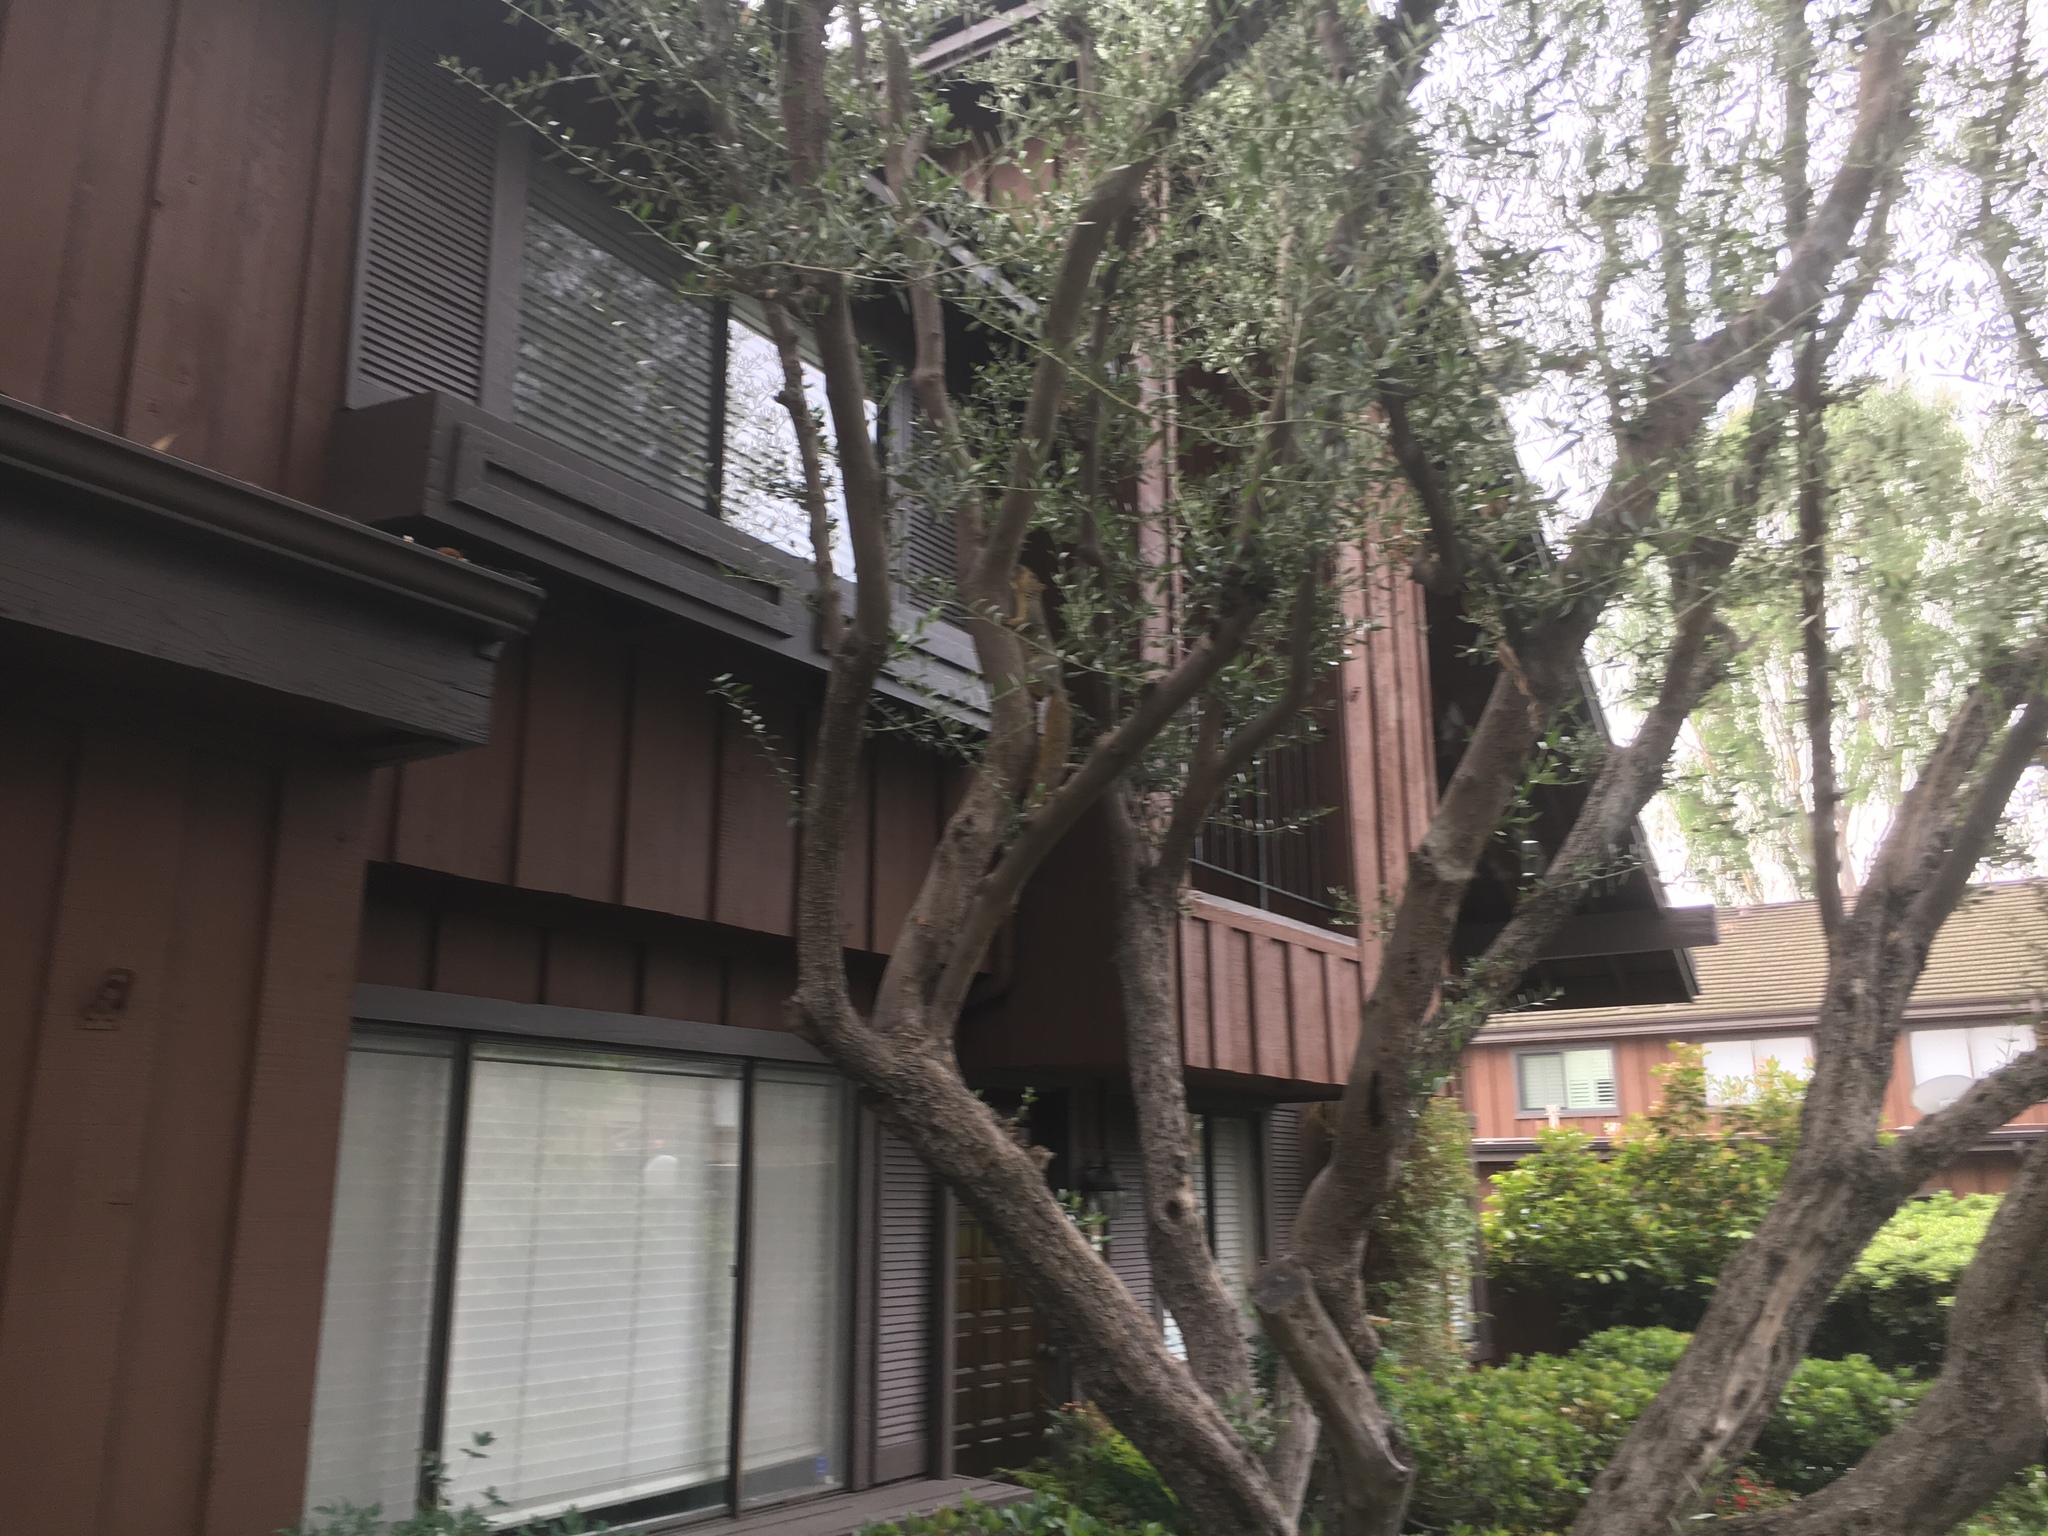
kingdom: Animalia
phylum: Chordata
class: Mammalia
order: Rodentia
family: Sciuridae
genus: Sciurus
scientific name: Sciurus niger
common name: Fox squirrel
